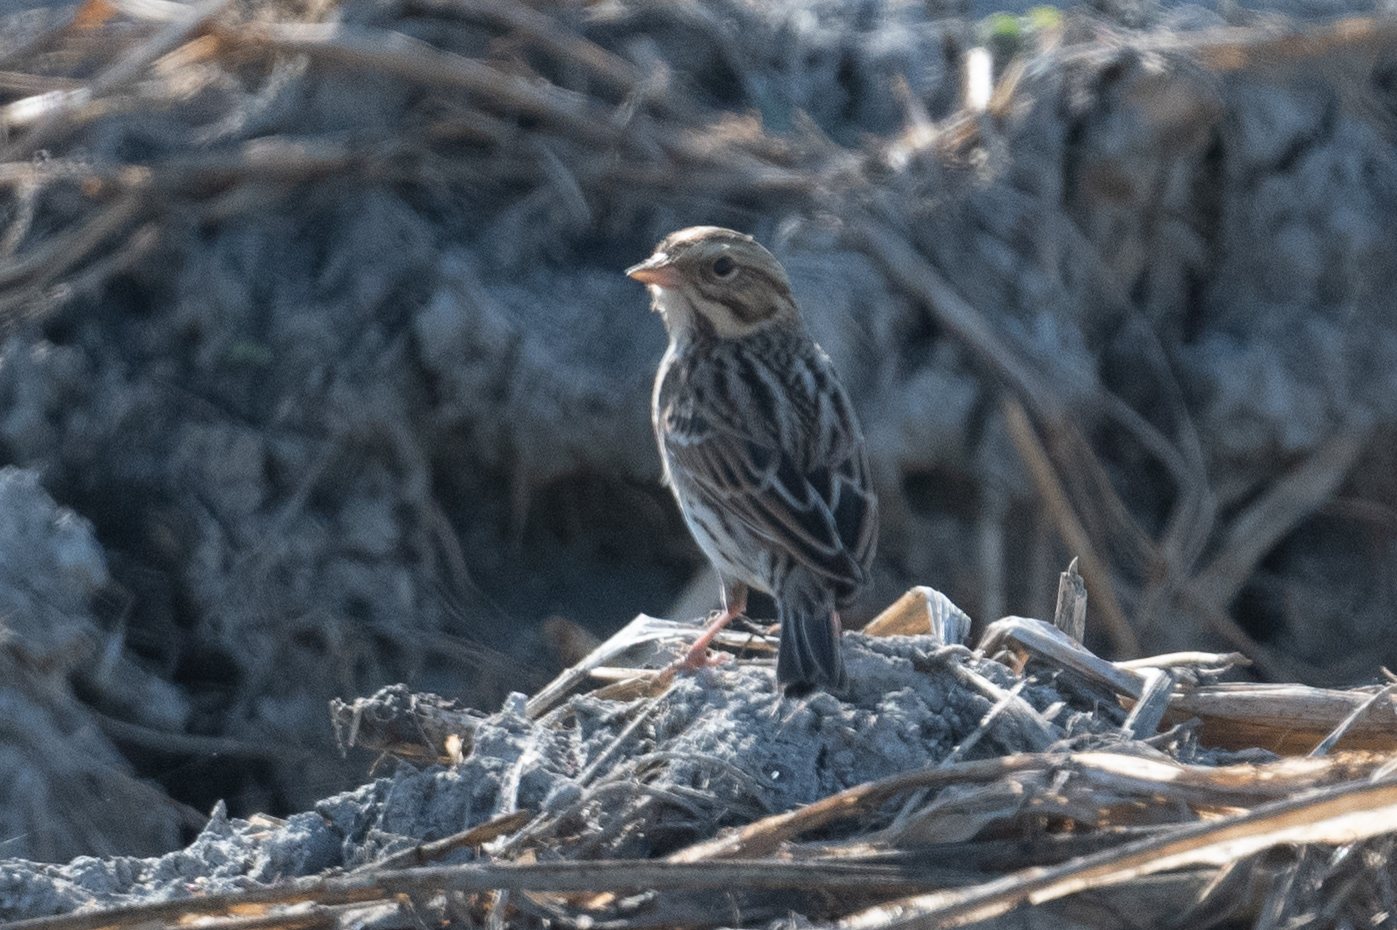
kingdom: Animalia
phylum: Chordata
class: Aves
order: Passeriformes
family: Passerellidae
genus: Passerculus
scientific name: Passerculus sandwichensis
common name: Savannah sparrow
